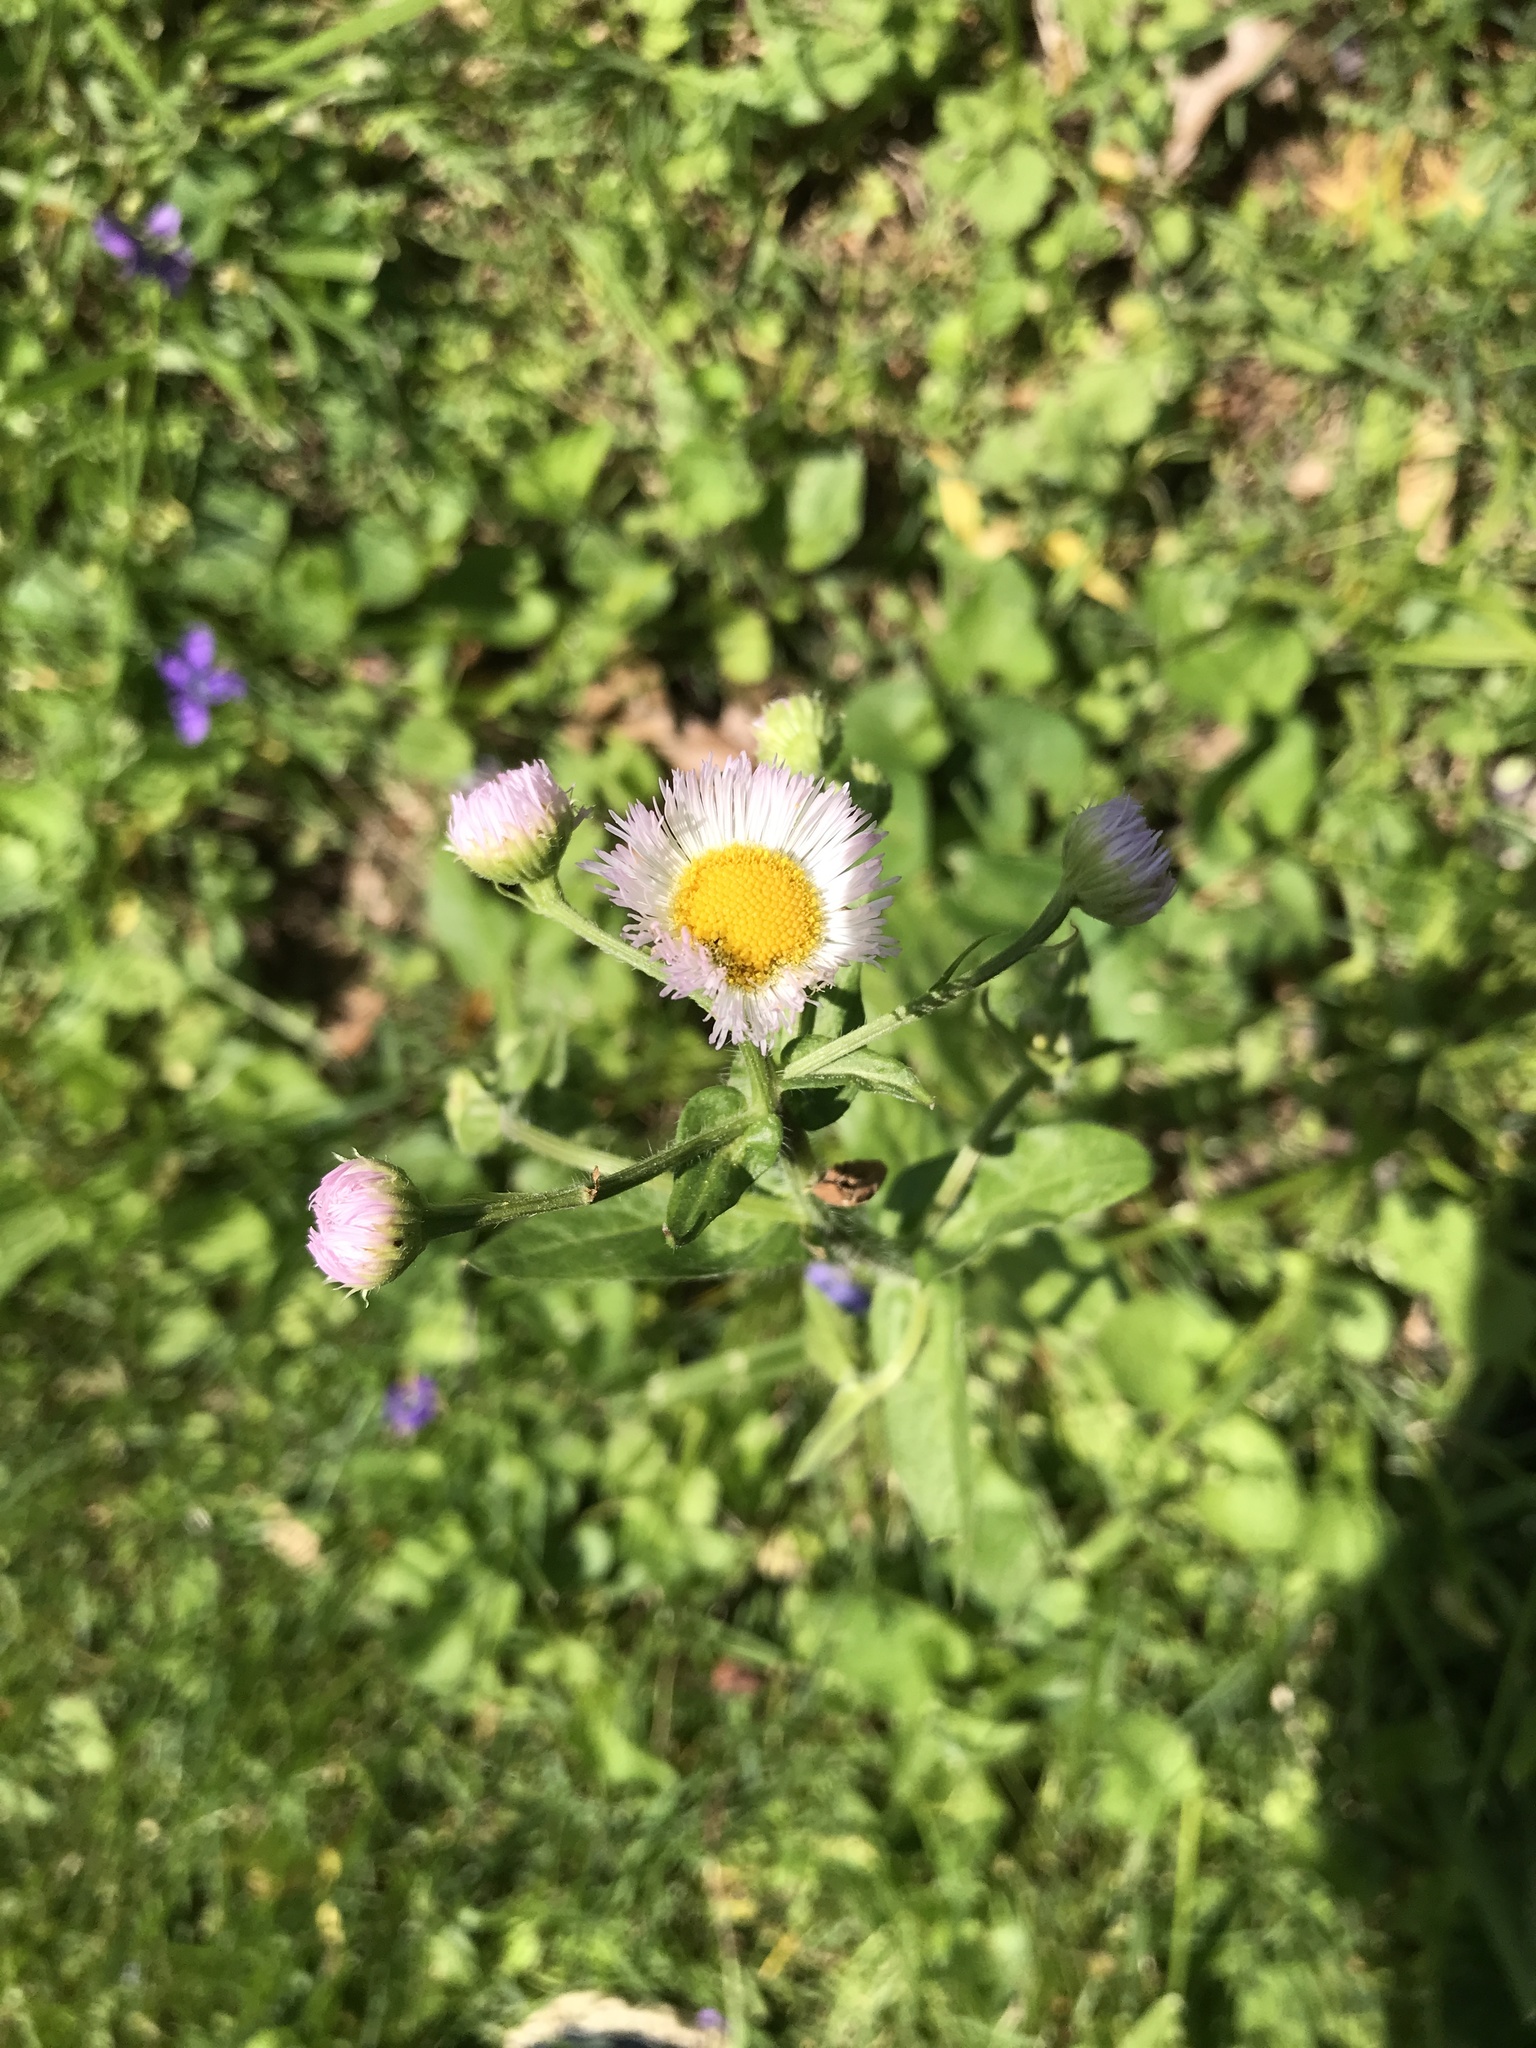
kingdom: Plantae
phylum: Tracheophyta
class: Magnoliopsida
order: Asterales
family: Asteraceae
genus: Erigeron
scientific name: Erigeron philadelphicus
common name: Robin's-plantain
